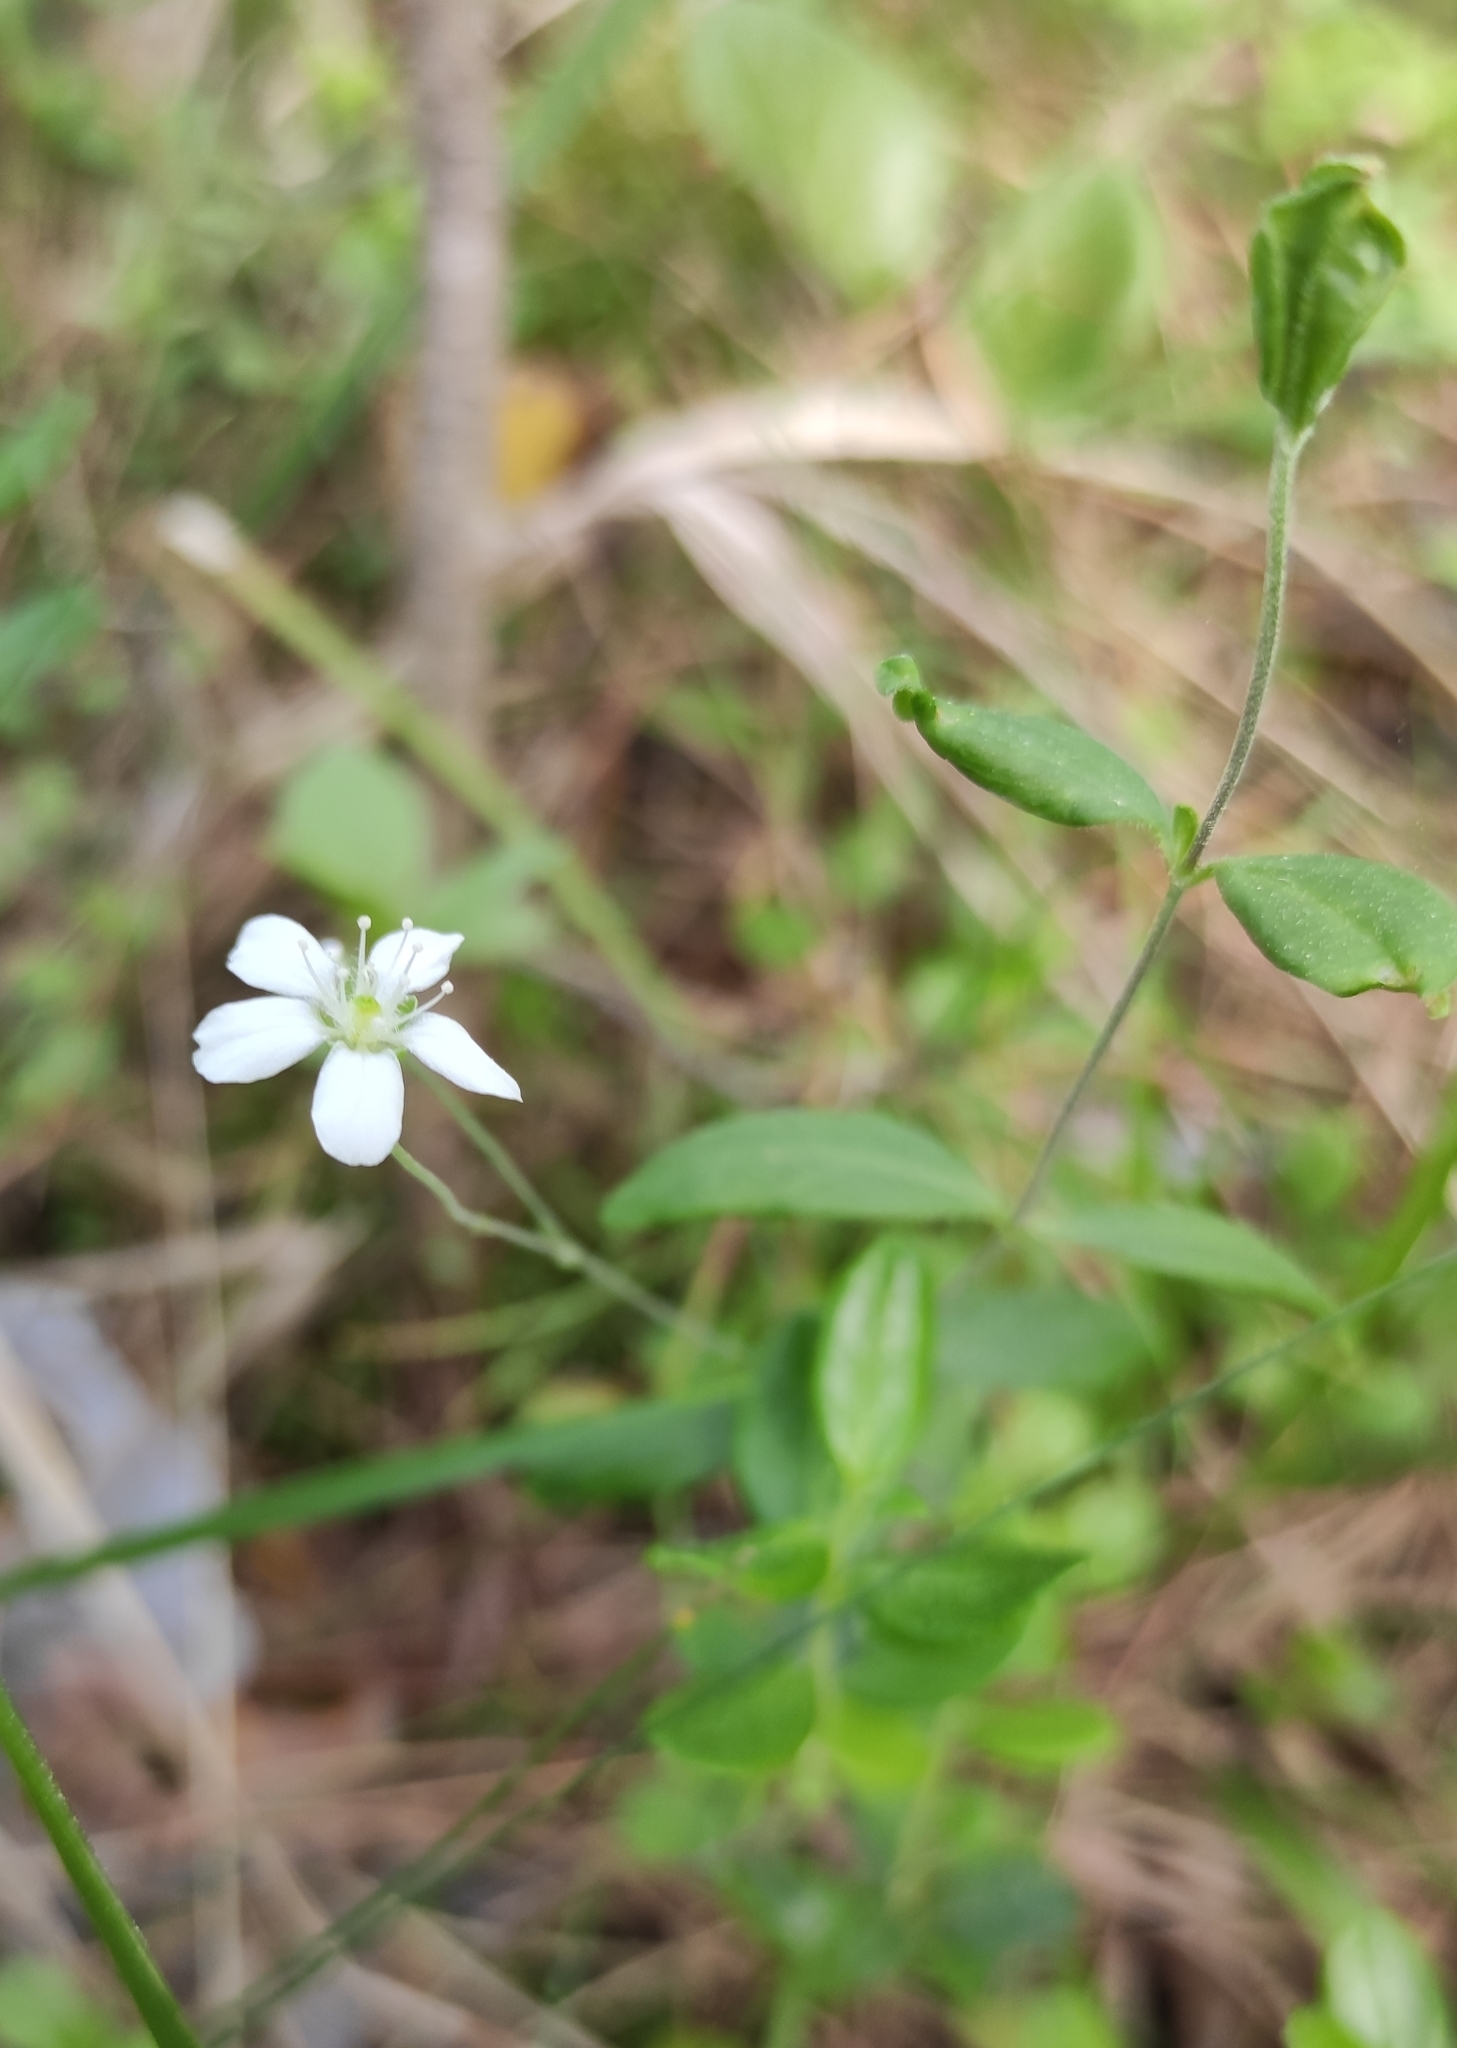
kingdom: Plantae
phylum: Tracheophyta
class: Magnoliopsida
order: Caryophyllales
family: Caryophyllaceae
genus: Moehringia
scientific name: Moehringia lateriflora
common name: Blunt-leaved sandwort
